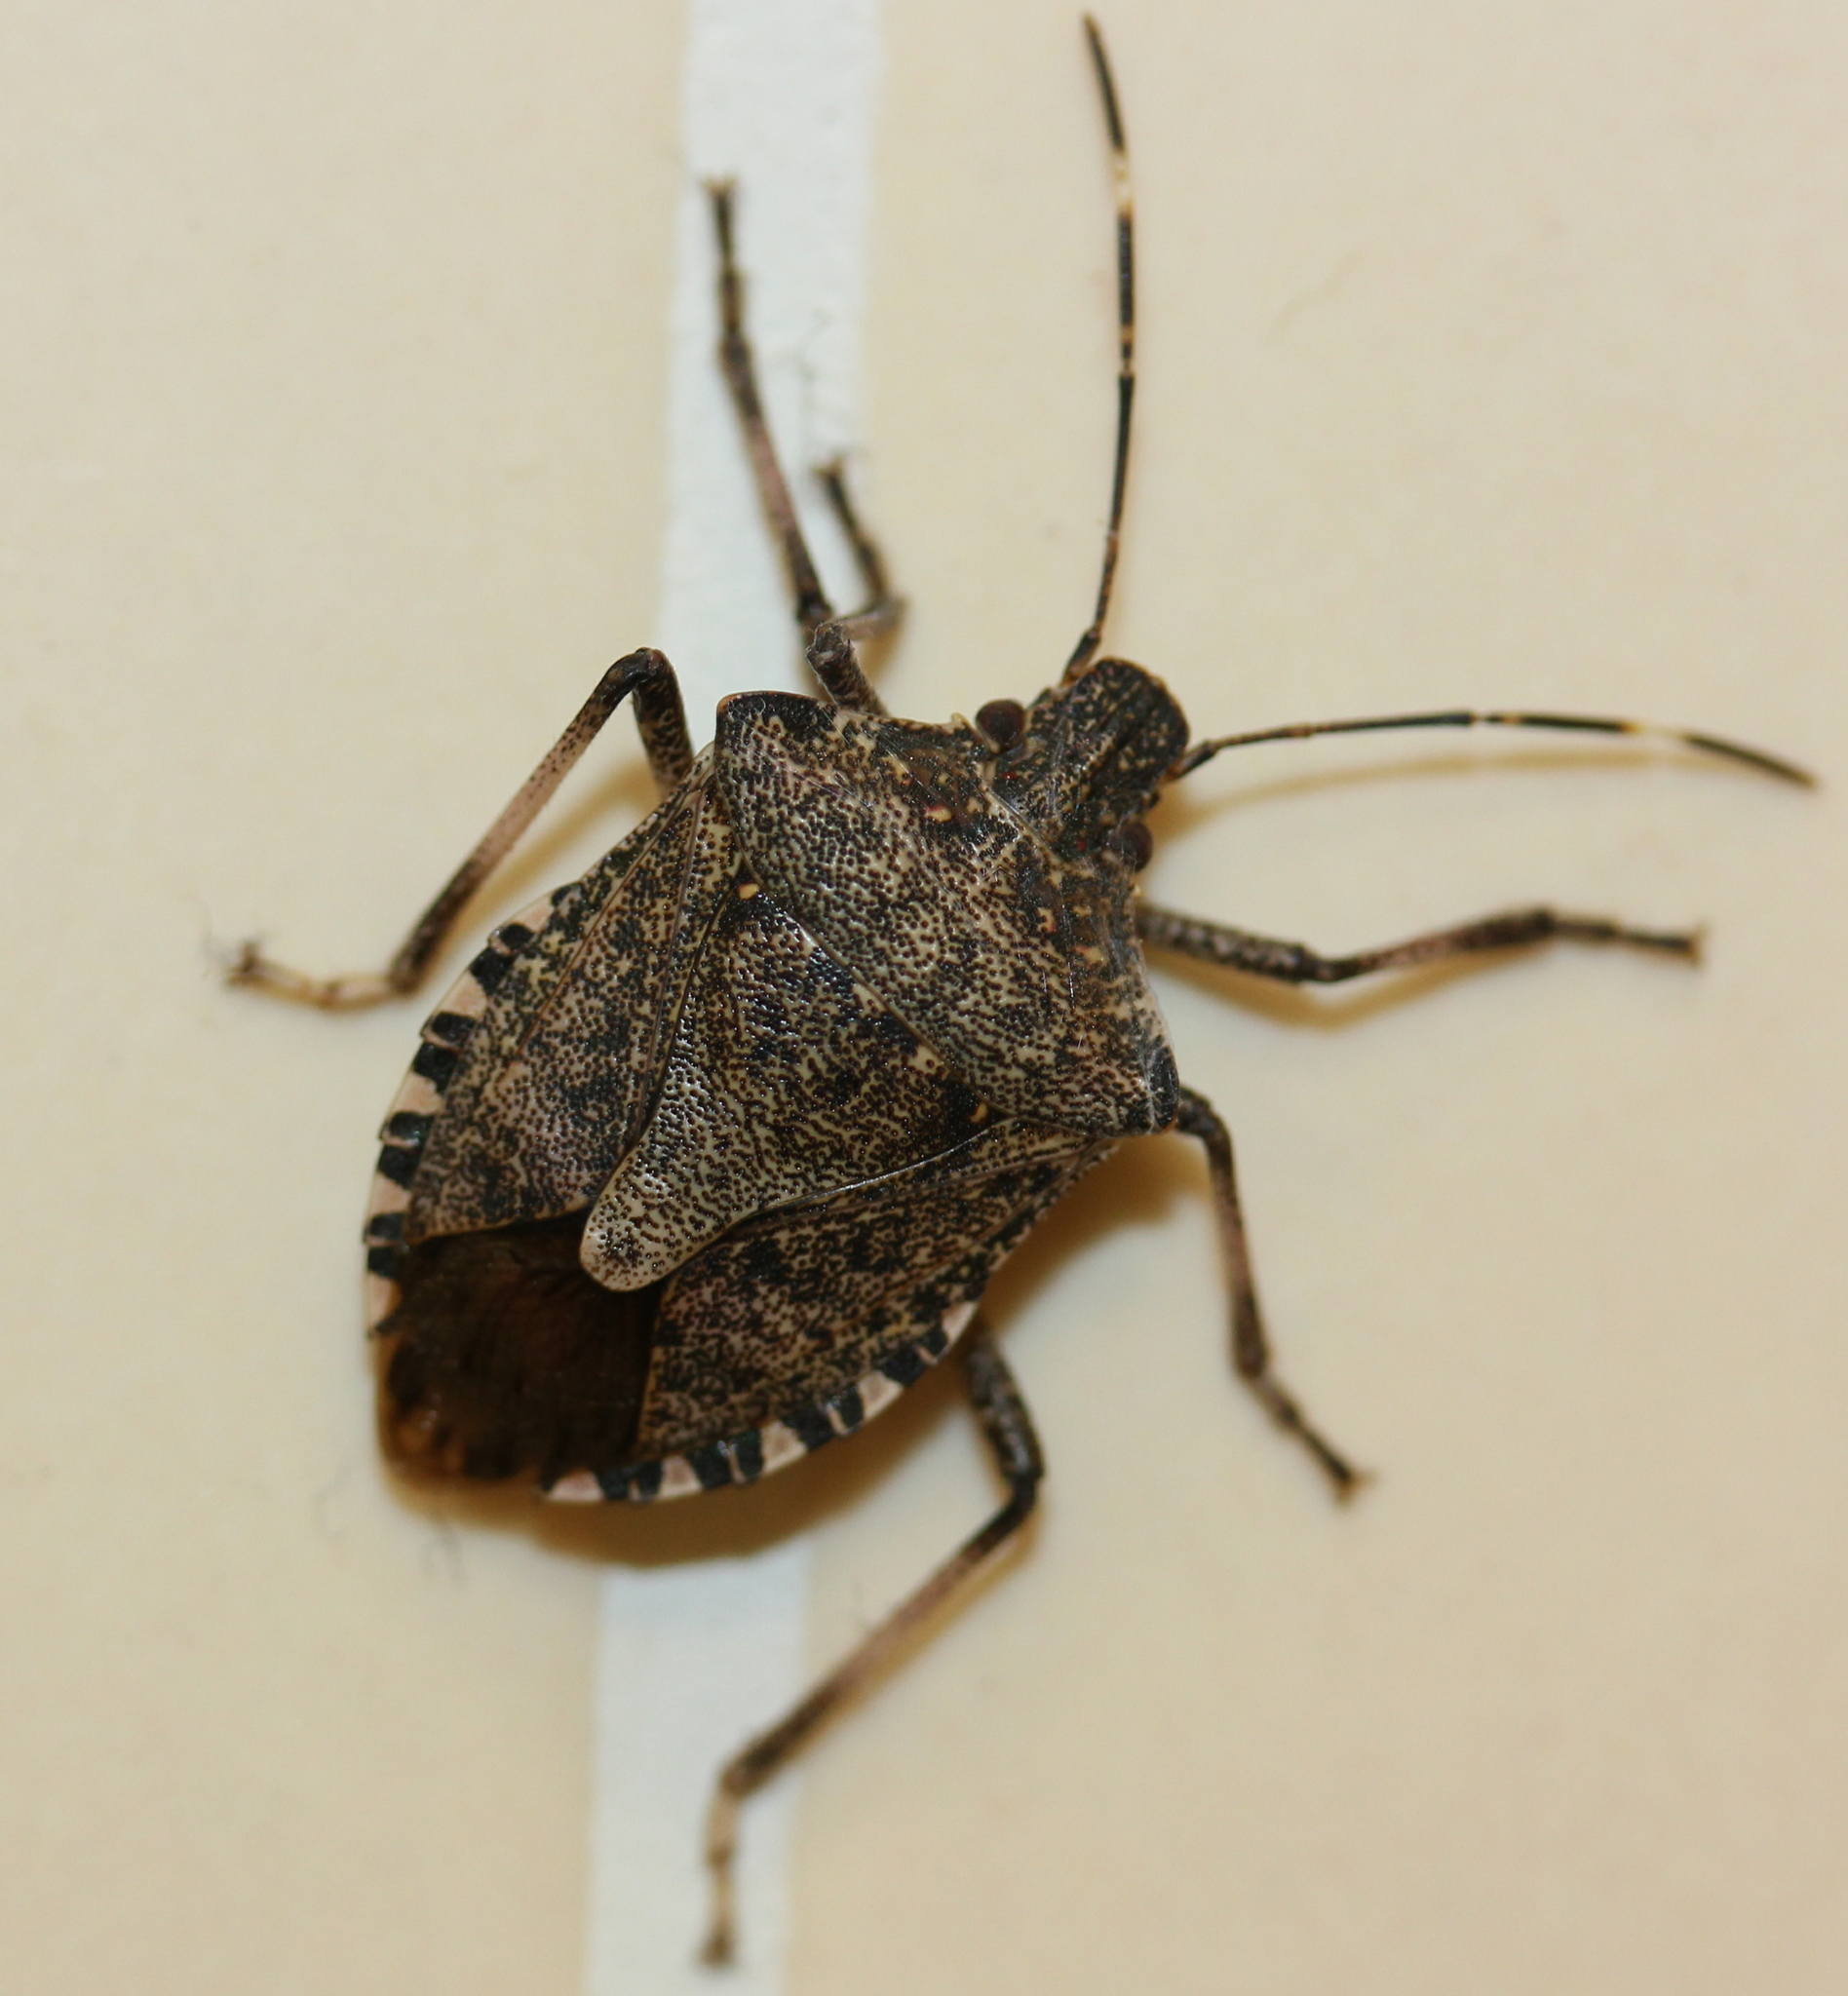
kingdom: Animalia
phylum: Arthropoda
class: Insecta
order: Hemiptera
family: Pentatomidae
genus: Halyomorpha
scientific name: Halyomorpha halys
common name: Brown marmorated stink bug
